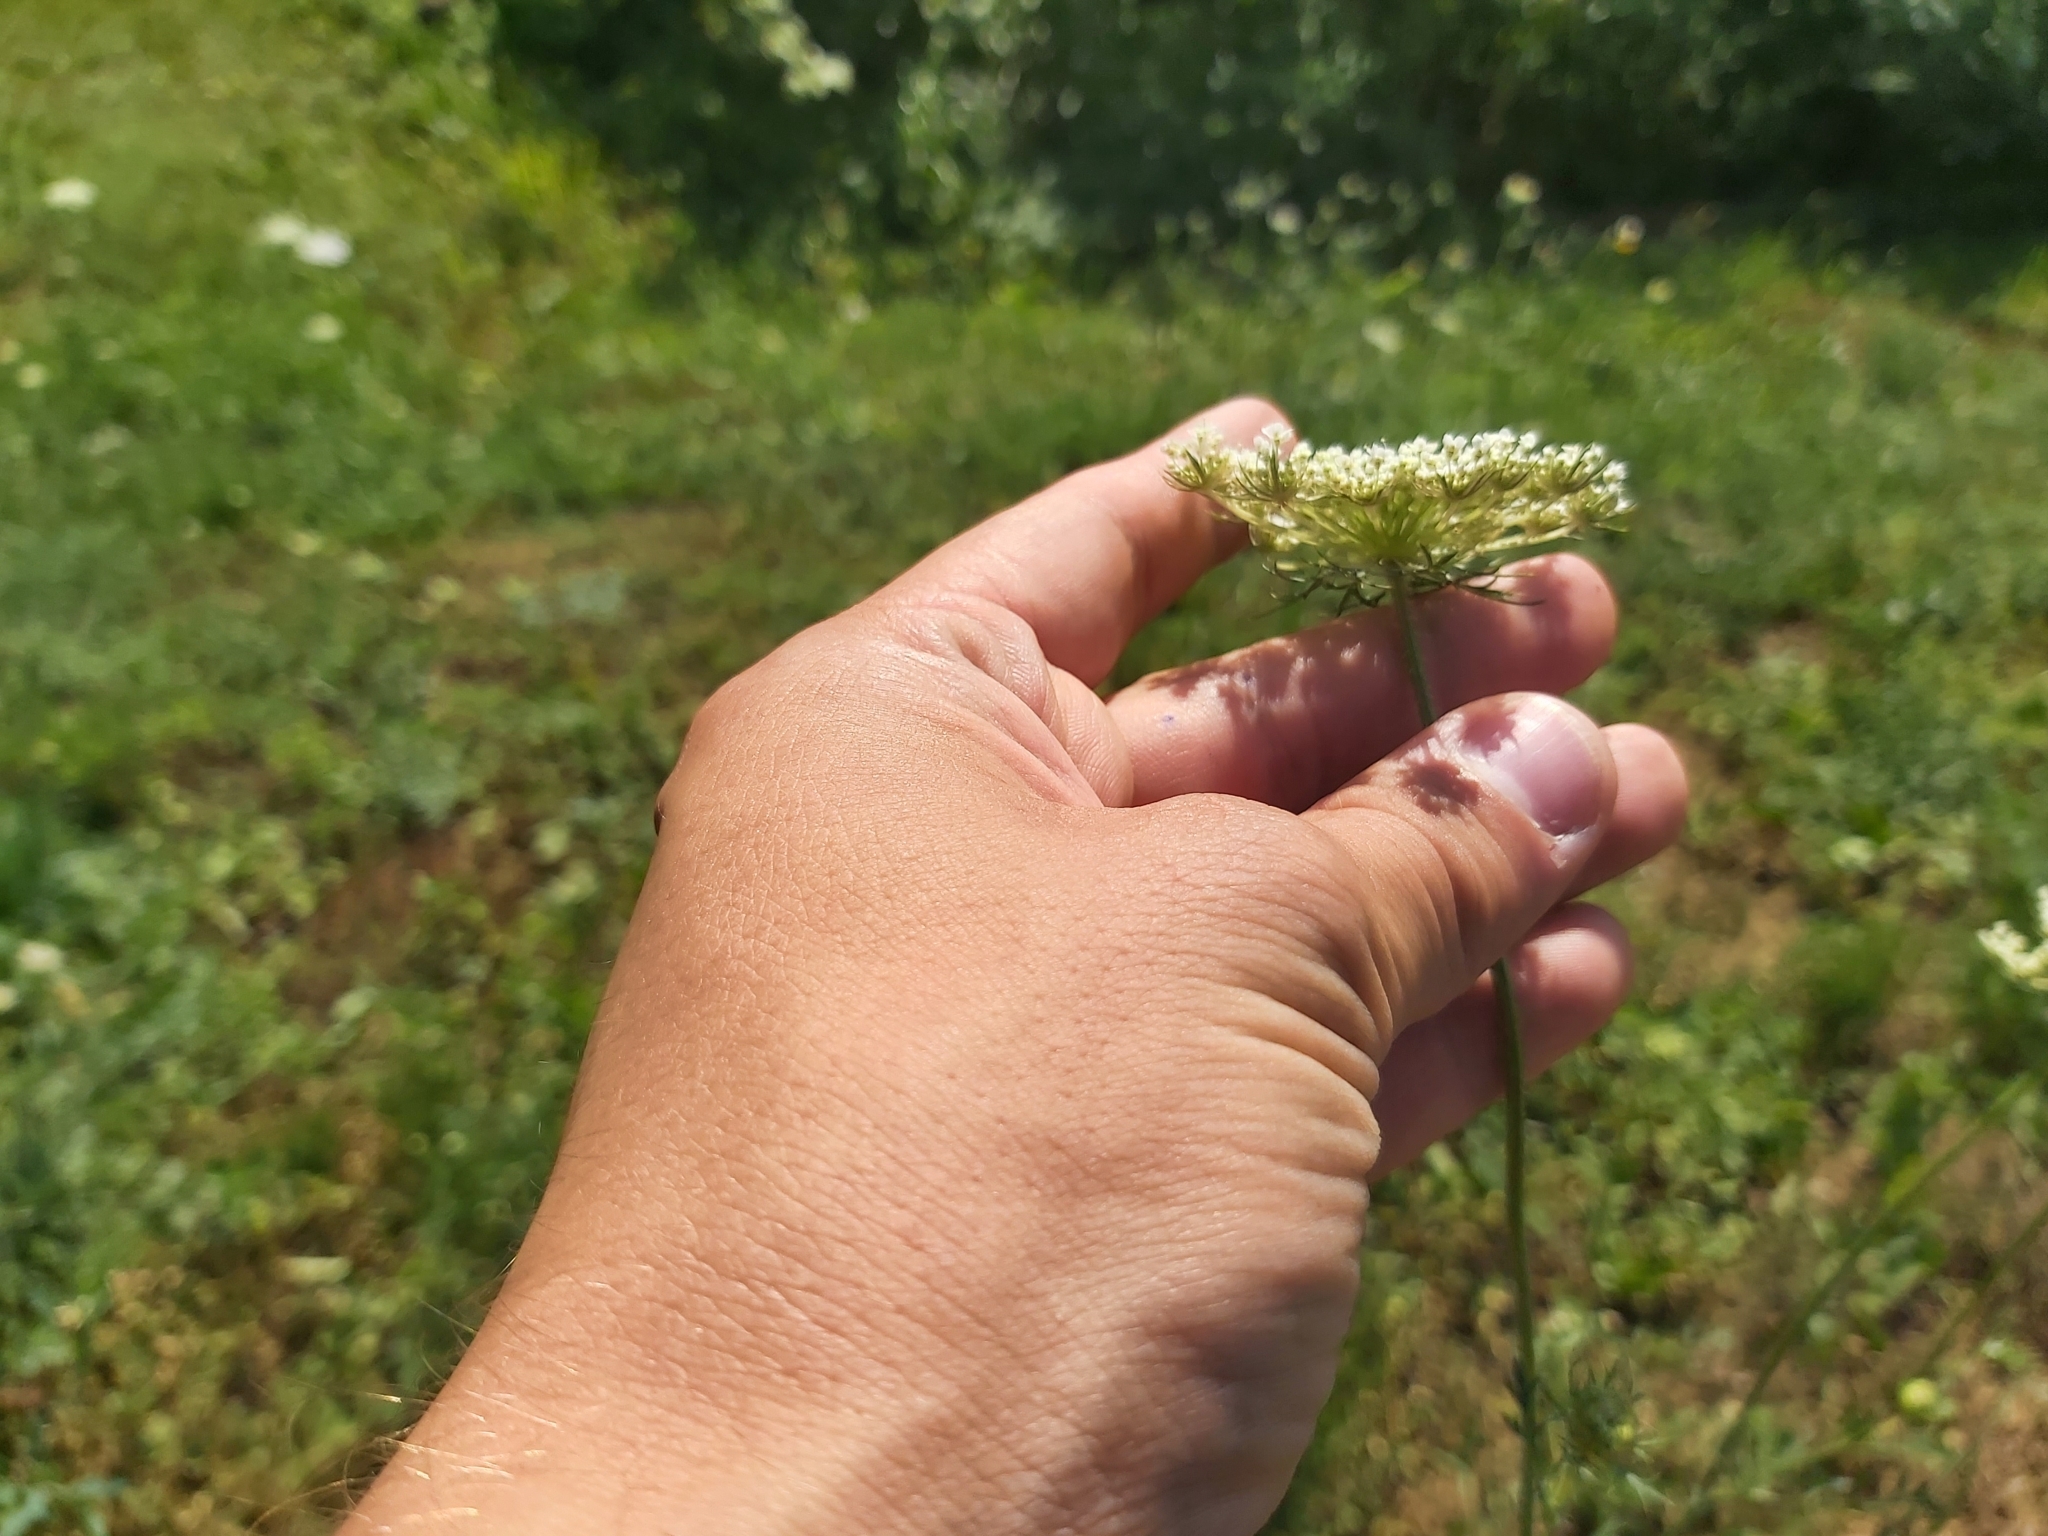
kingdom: Plantae
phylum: Tracheophyta
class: Magnoliopsida
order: Apiales
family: Apiaceae
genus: Daucus
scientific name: Daucus carota
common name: Wild carrot
